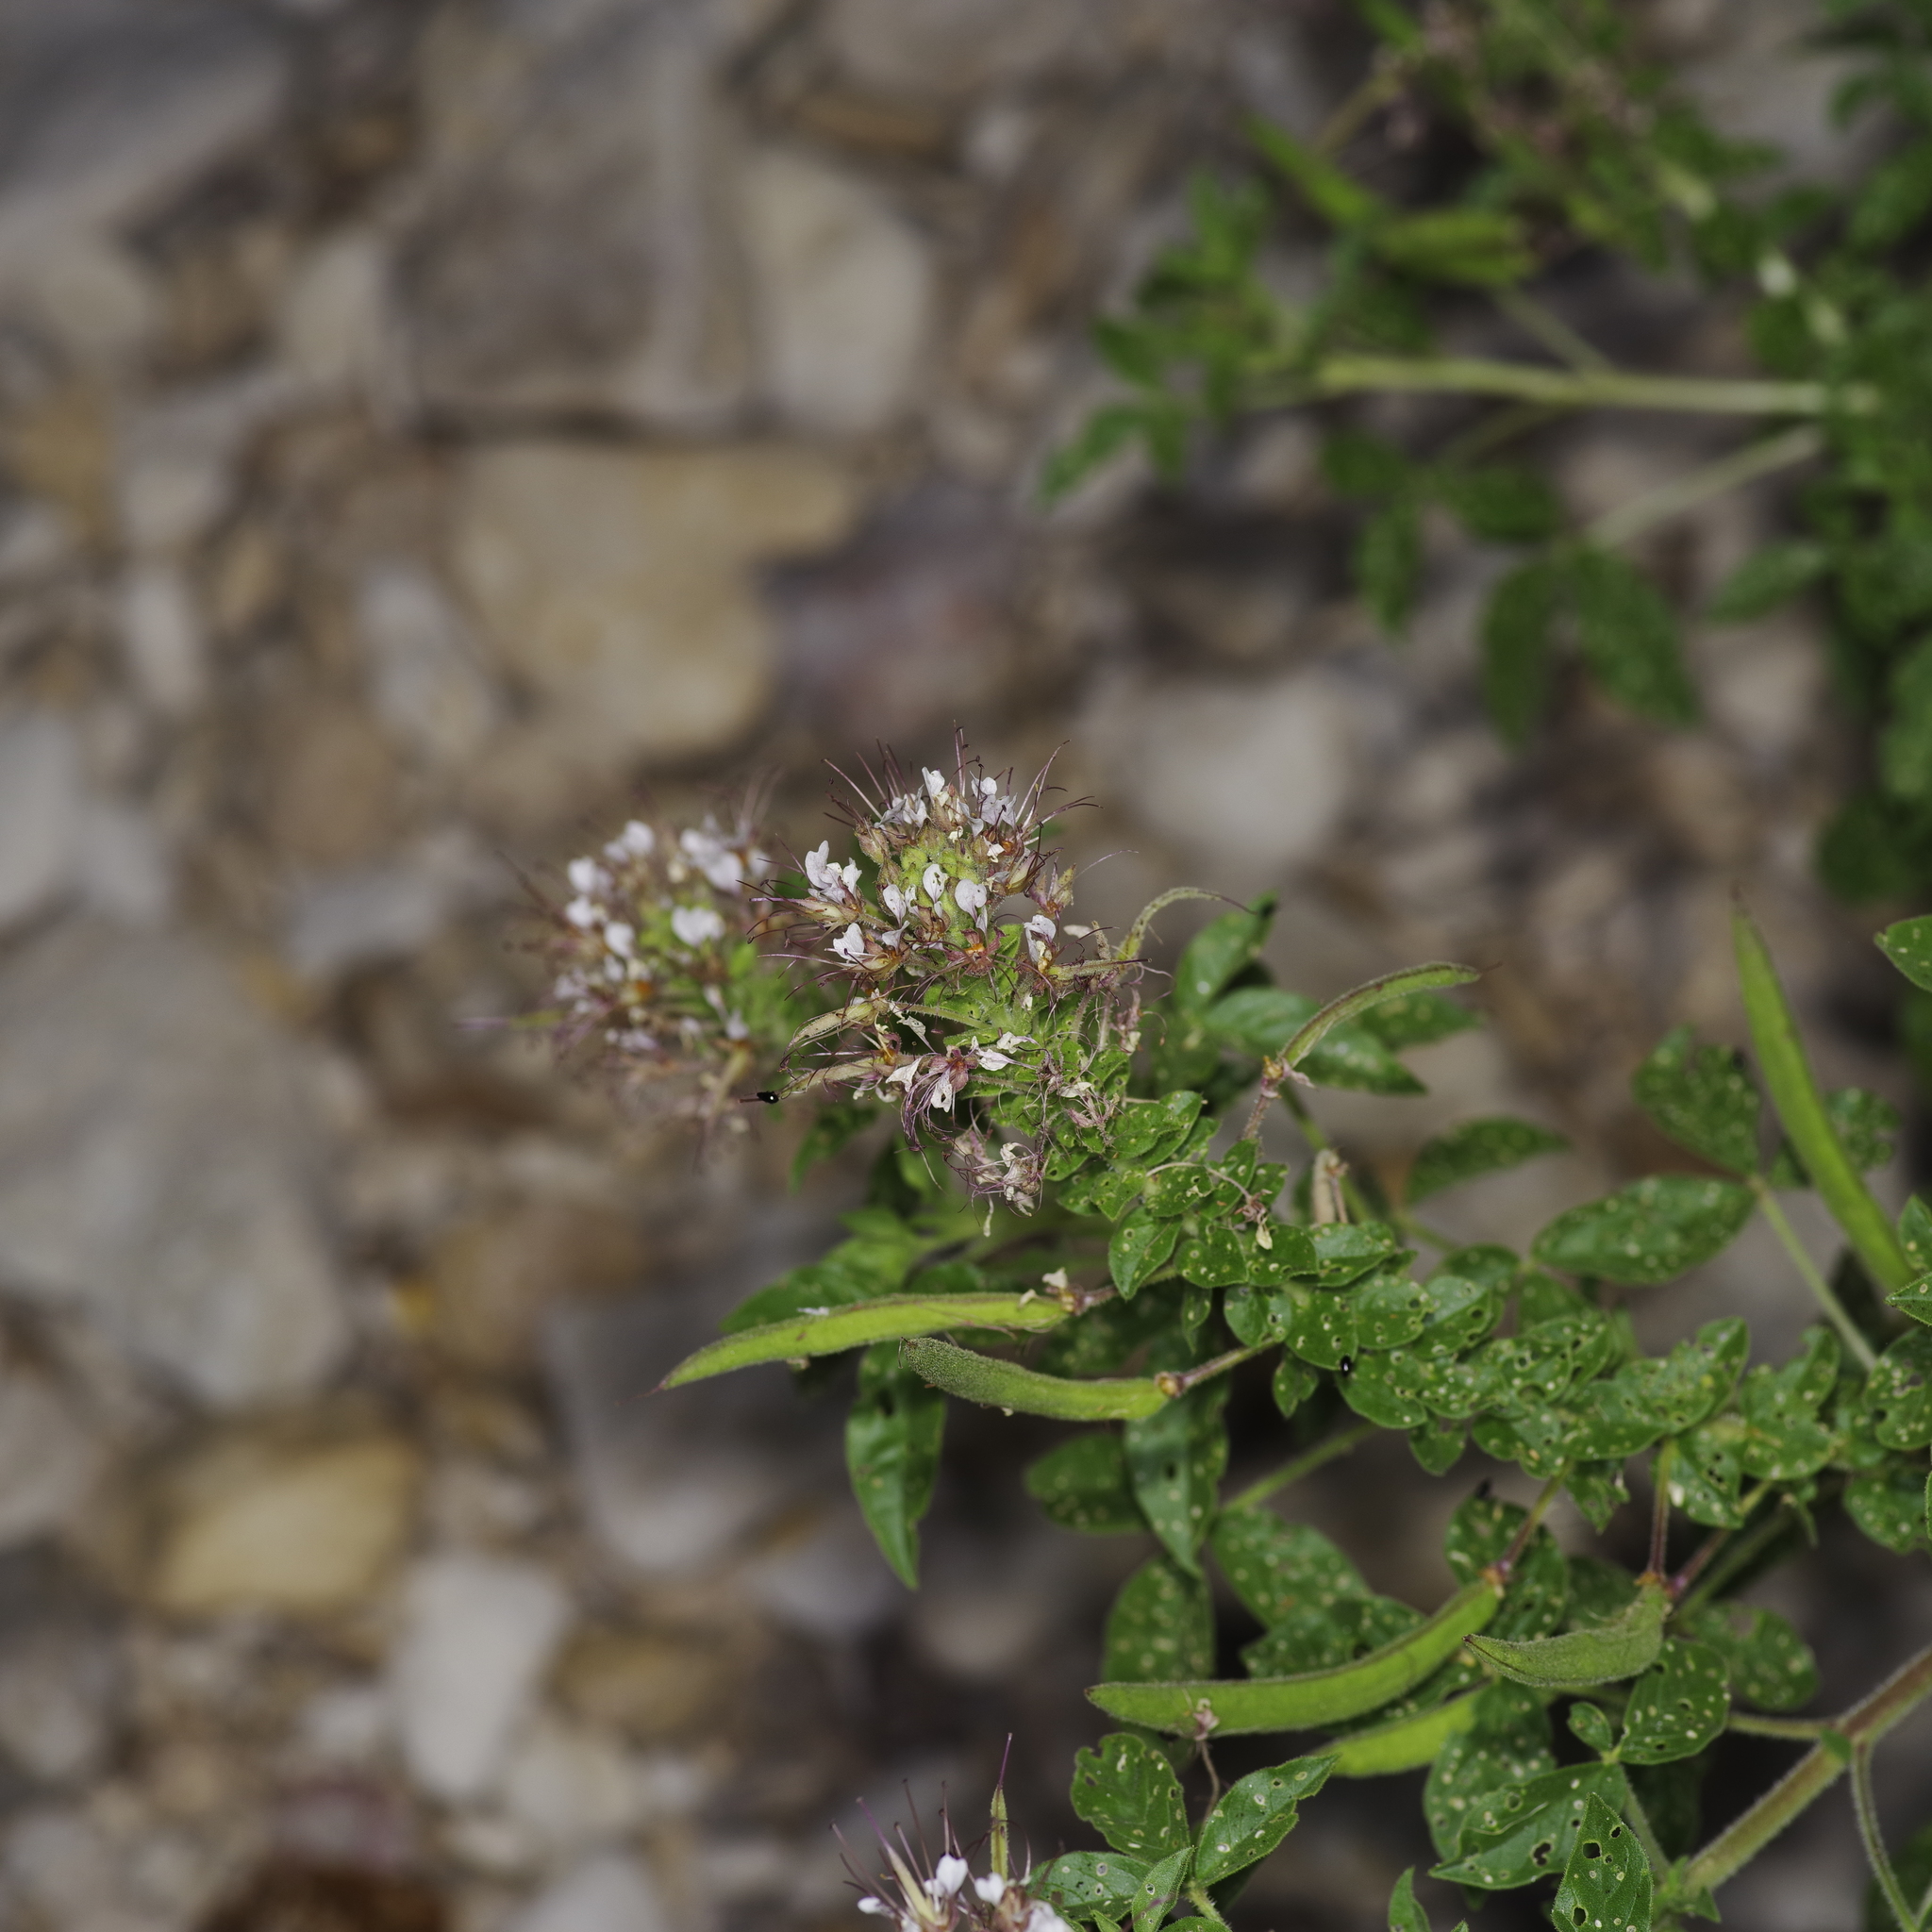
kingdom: Plantae
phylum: Tracheophyta
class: Magnoliopsida
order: Brassicales
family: Cleomaceae
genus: Polanisia
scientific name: Polanisia dodecandra
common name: Clammyweed
